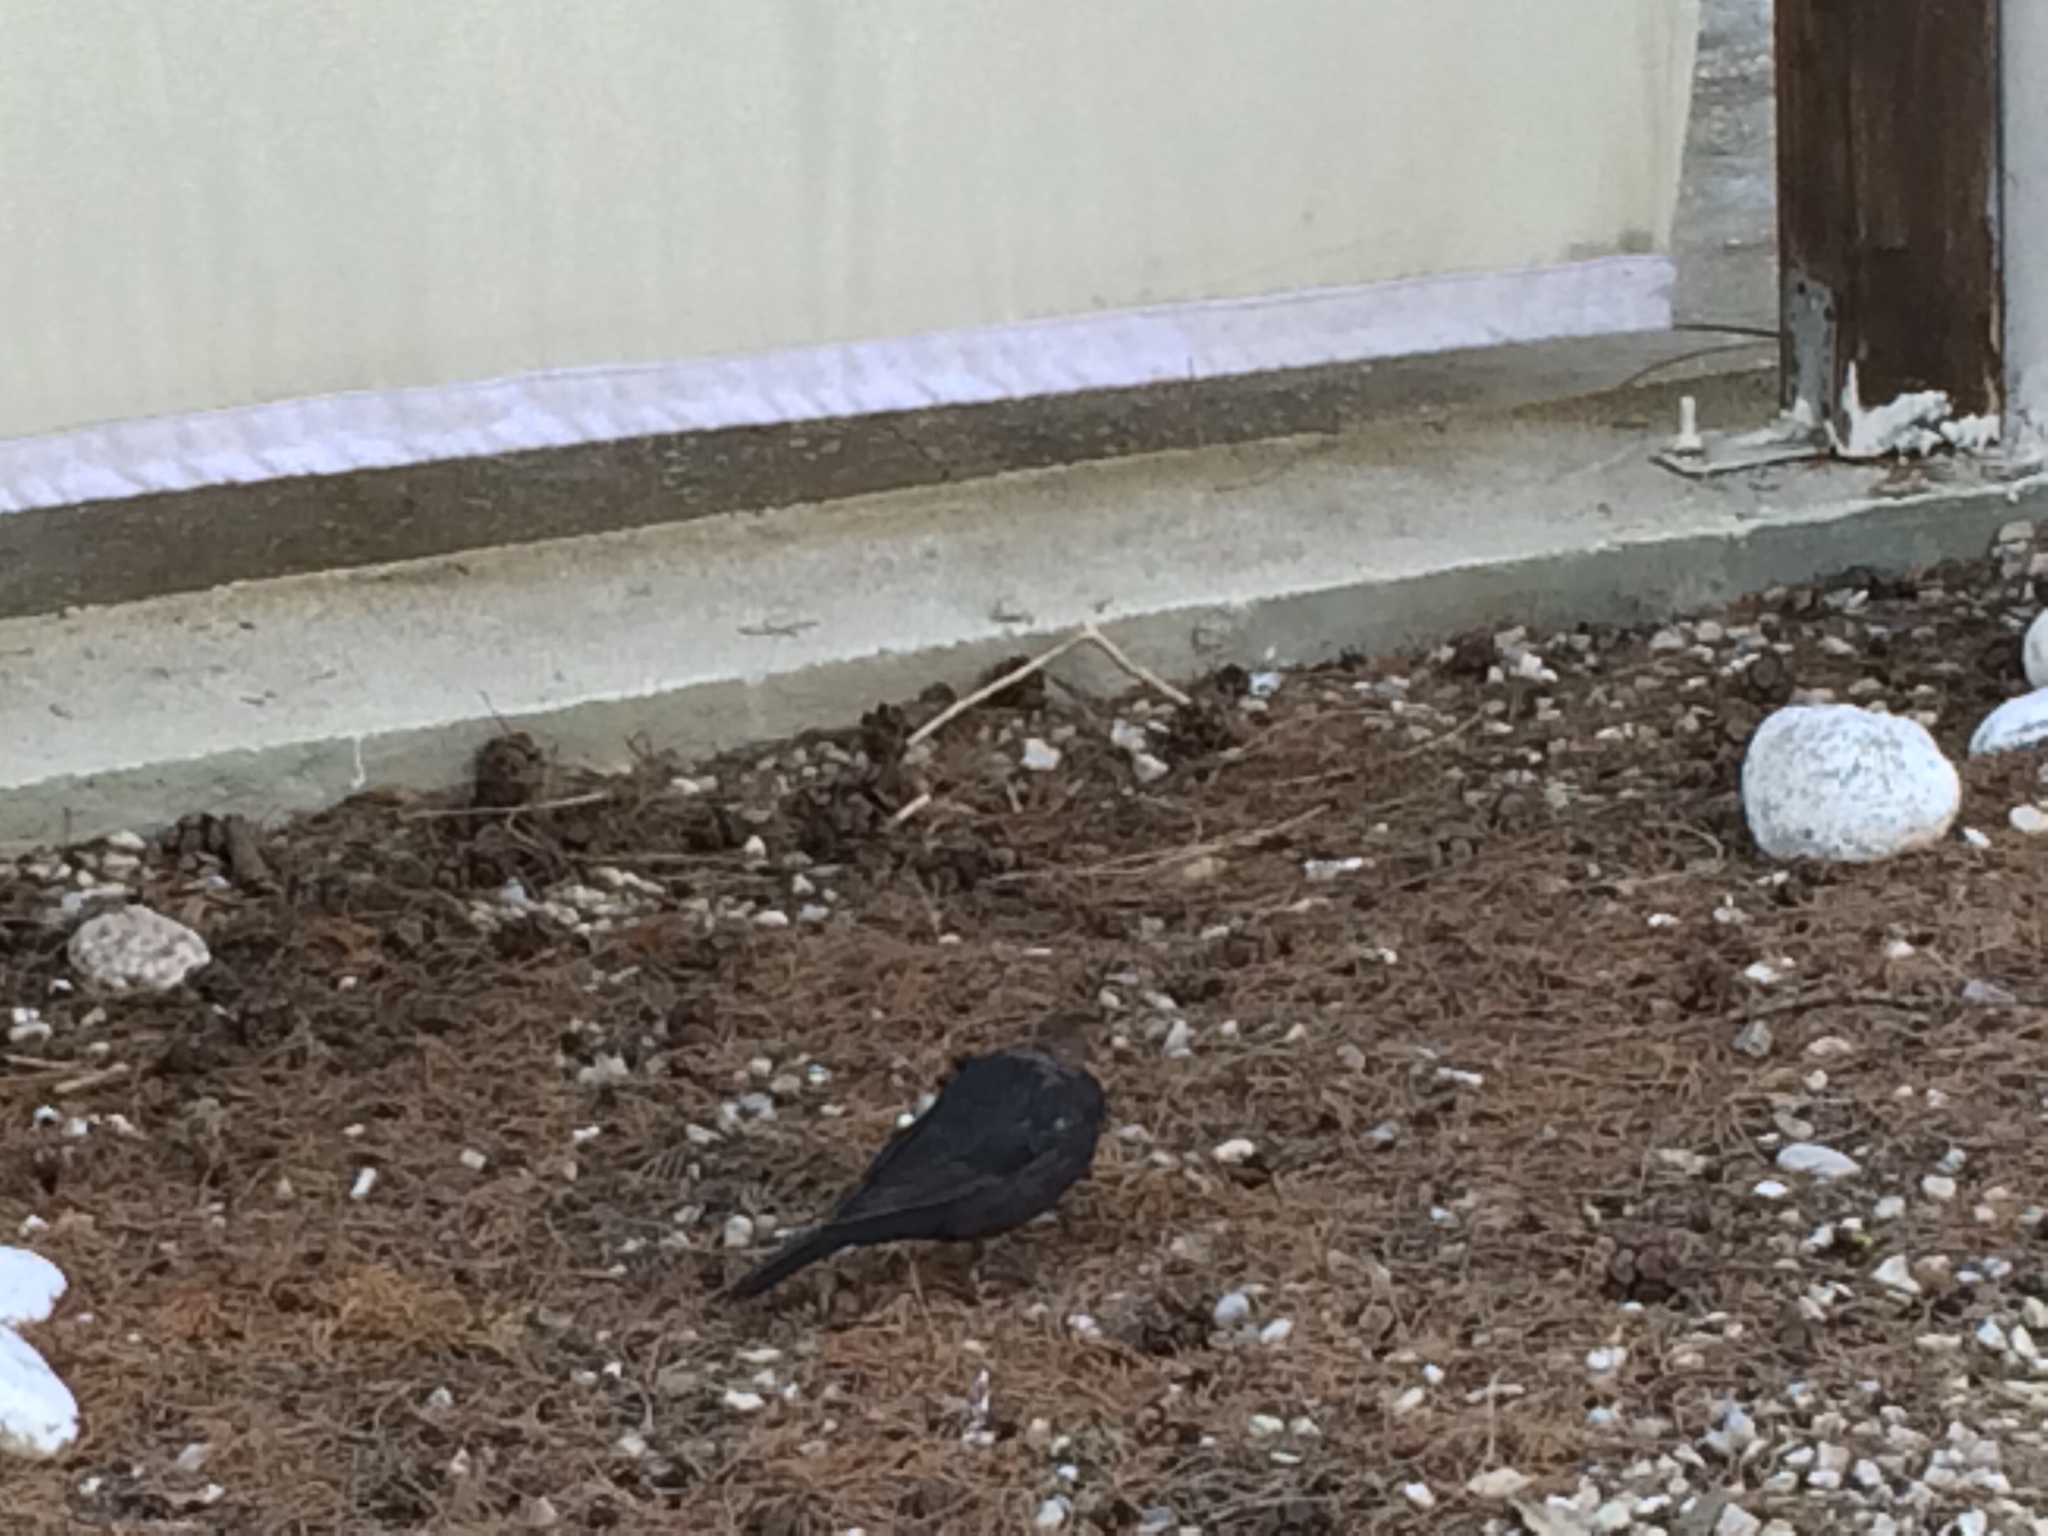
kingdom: Animalia
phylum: Chordata
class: Aves
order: Passeriformes
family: Turdidae
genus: Turdus
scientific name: Turdus merula
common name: Common blackbird
